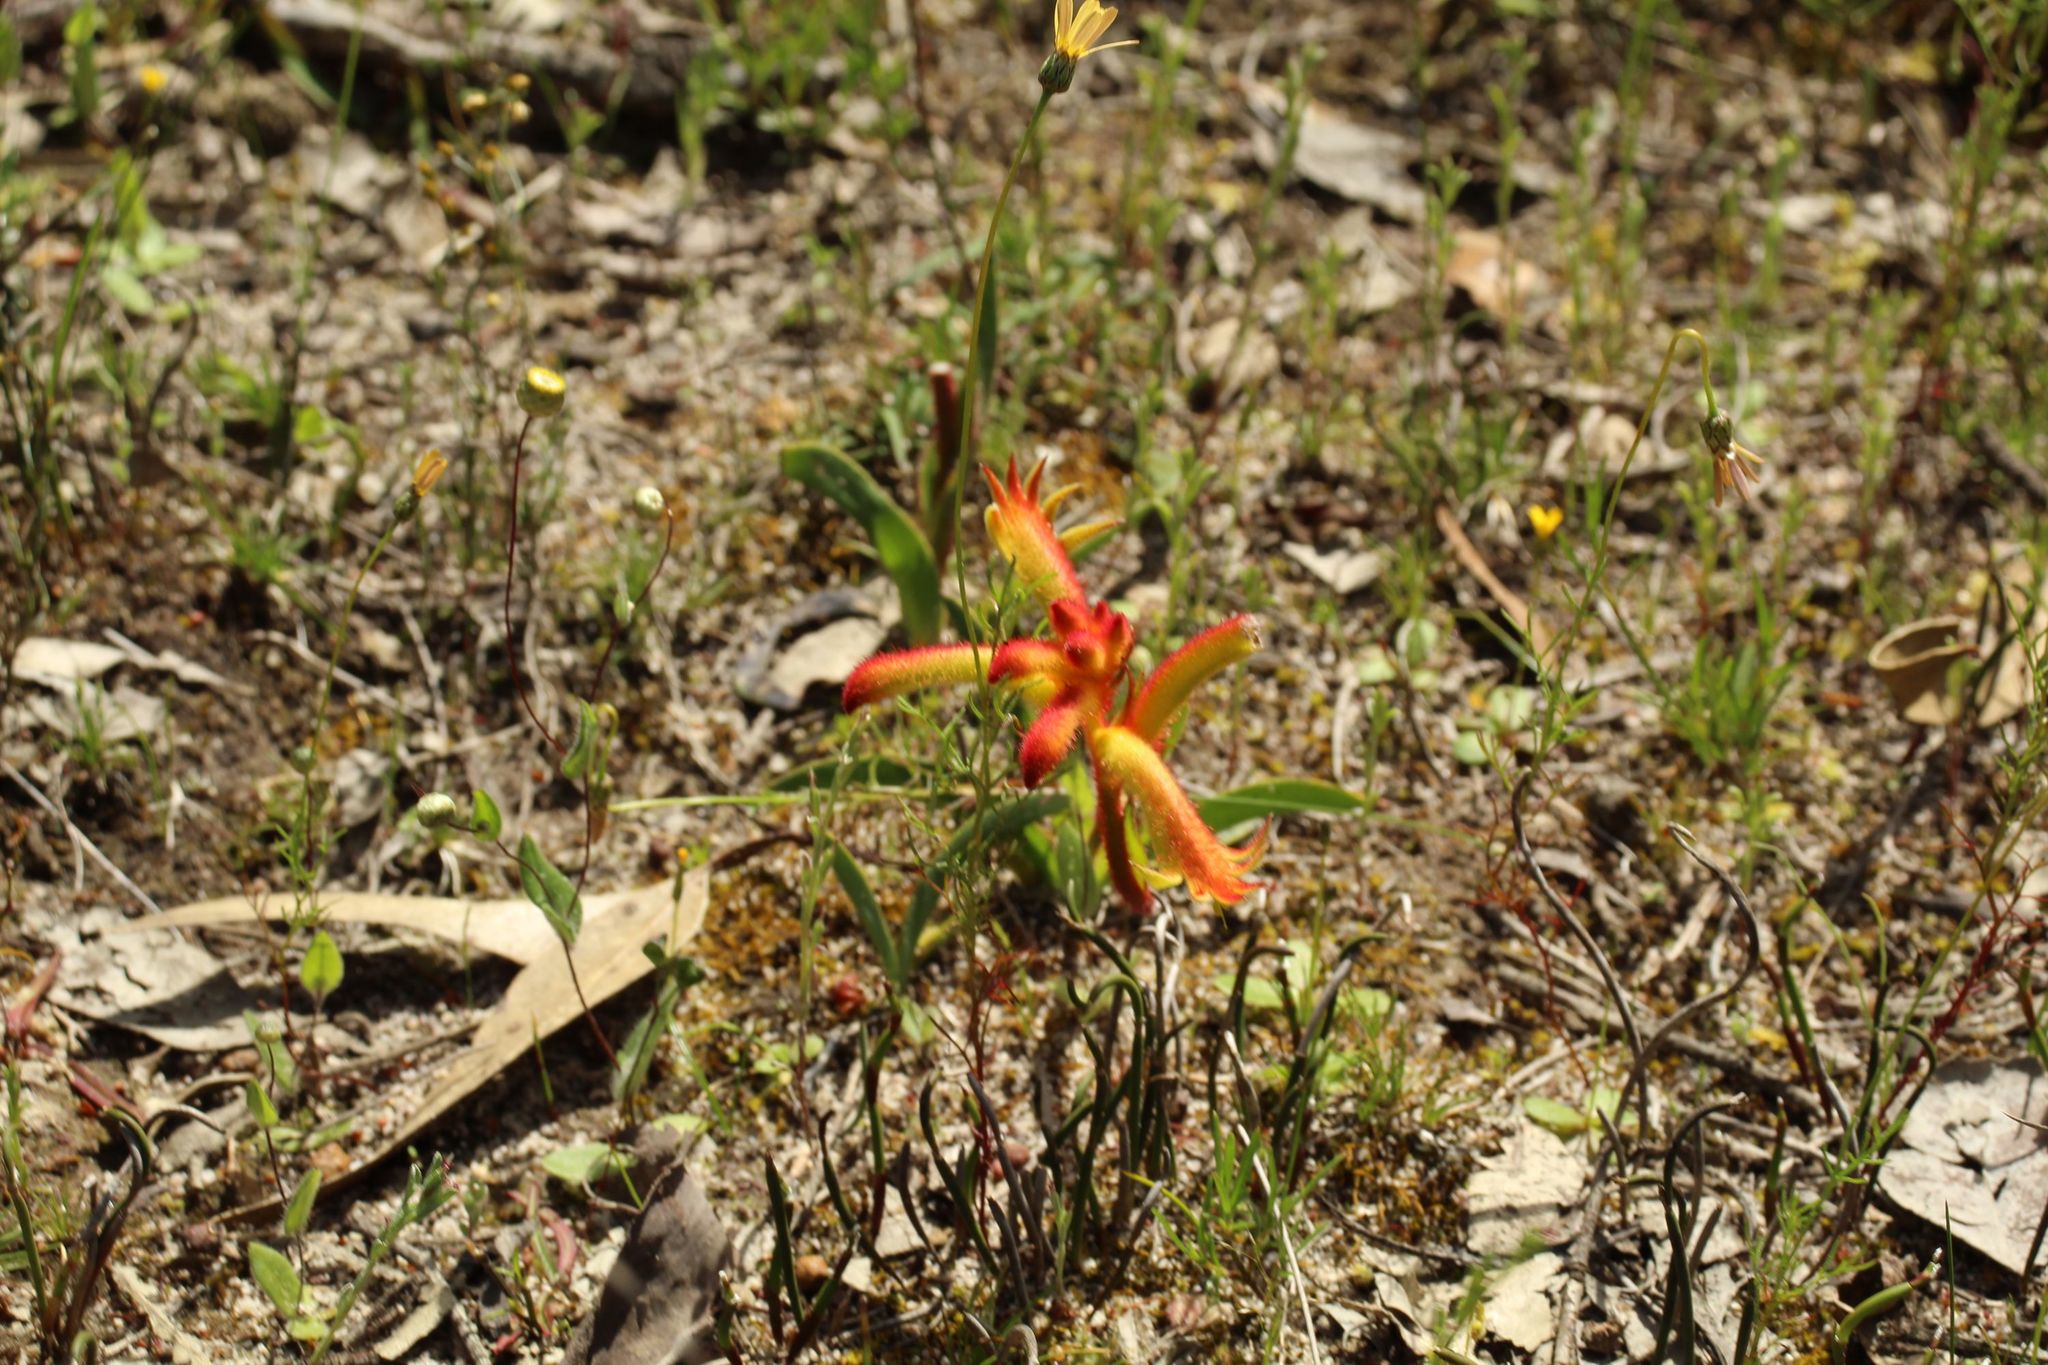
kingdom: Plantae
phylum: Tracheophyta
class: Liliopsida
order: Commelinales
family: Haemodoraceae
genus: Anigozanthos
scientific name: Anigozanthos humilis
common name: Cat's-paw
